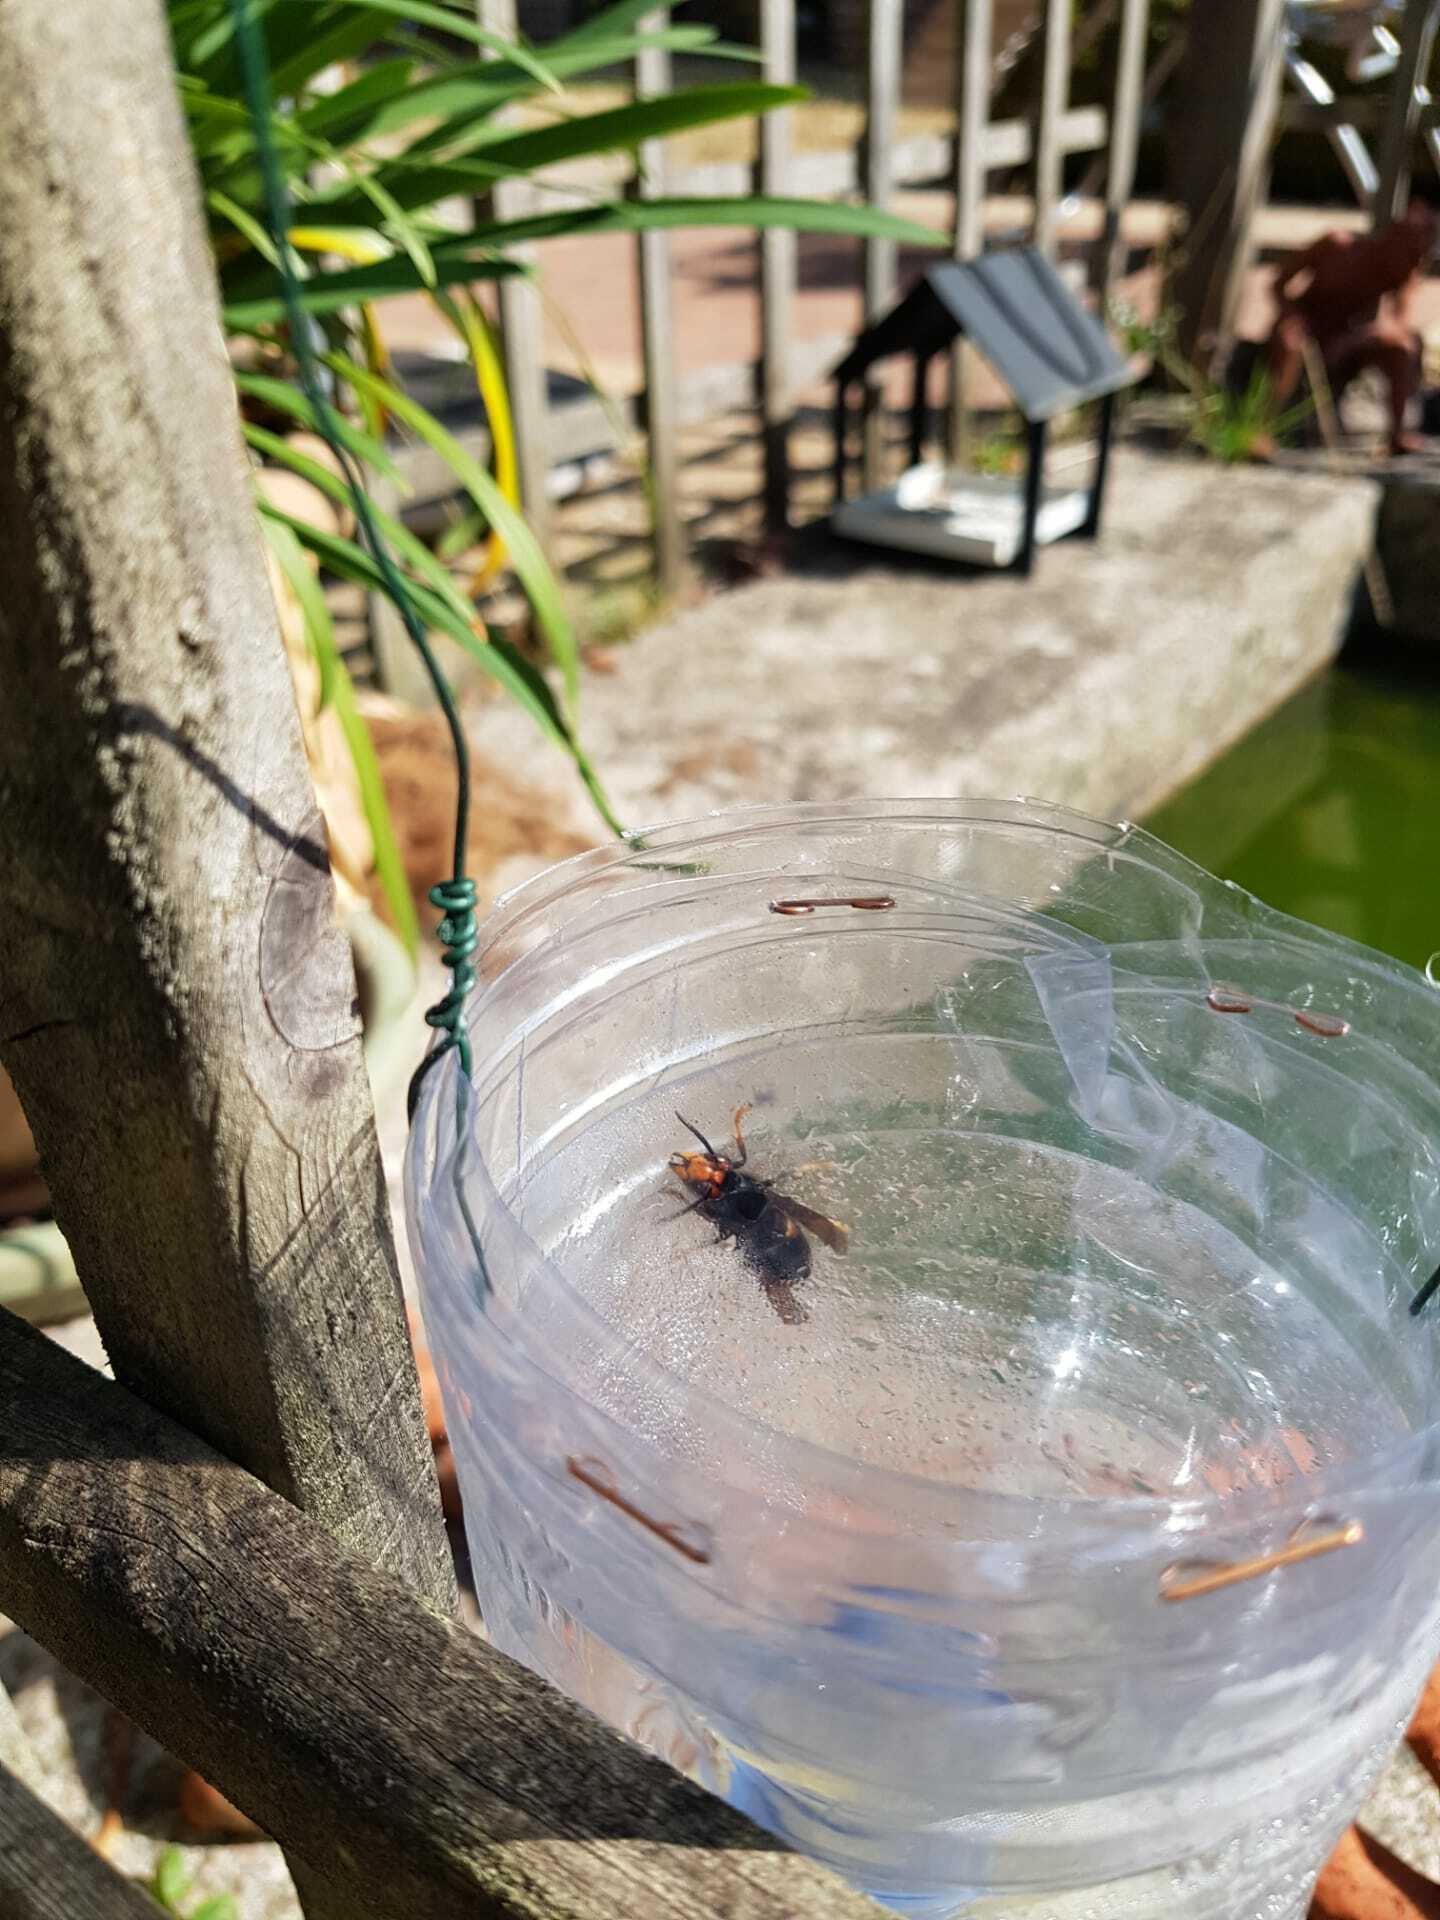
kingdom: Animalia
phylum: Arthropoda
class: Insecta
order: Hymenoptera
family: Vespidae
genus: Vespa
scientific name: Vespa velutina
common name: Asian hornet
